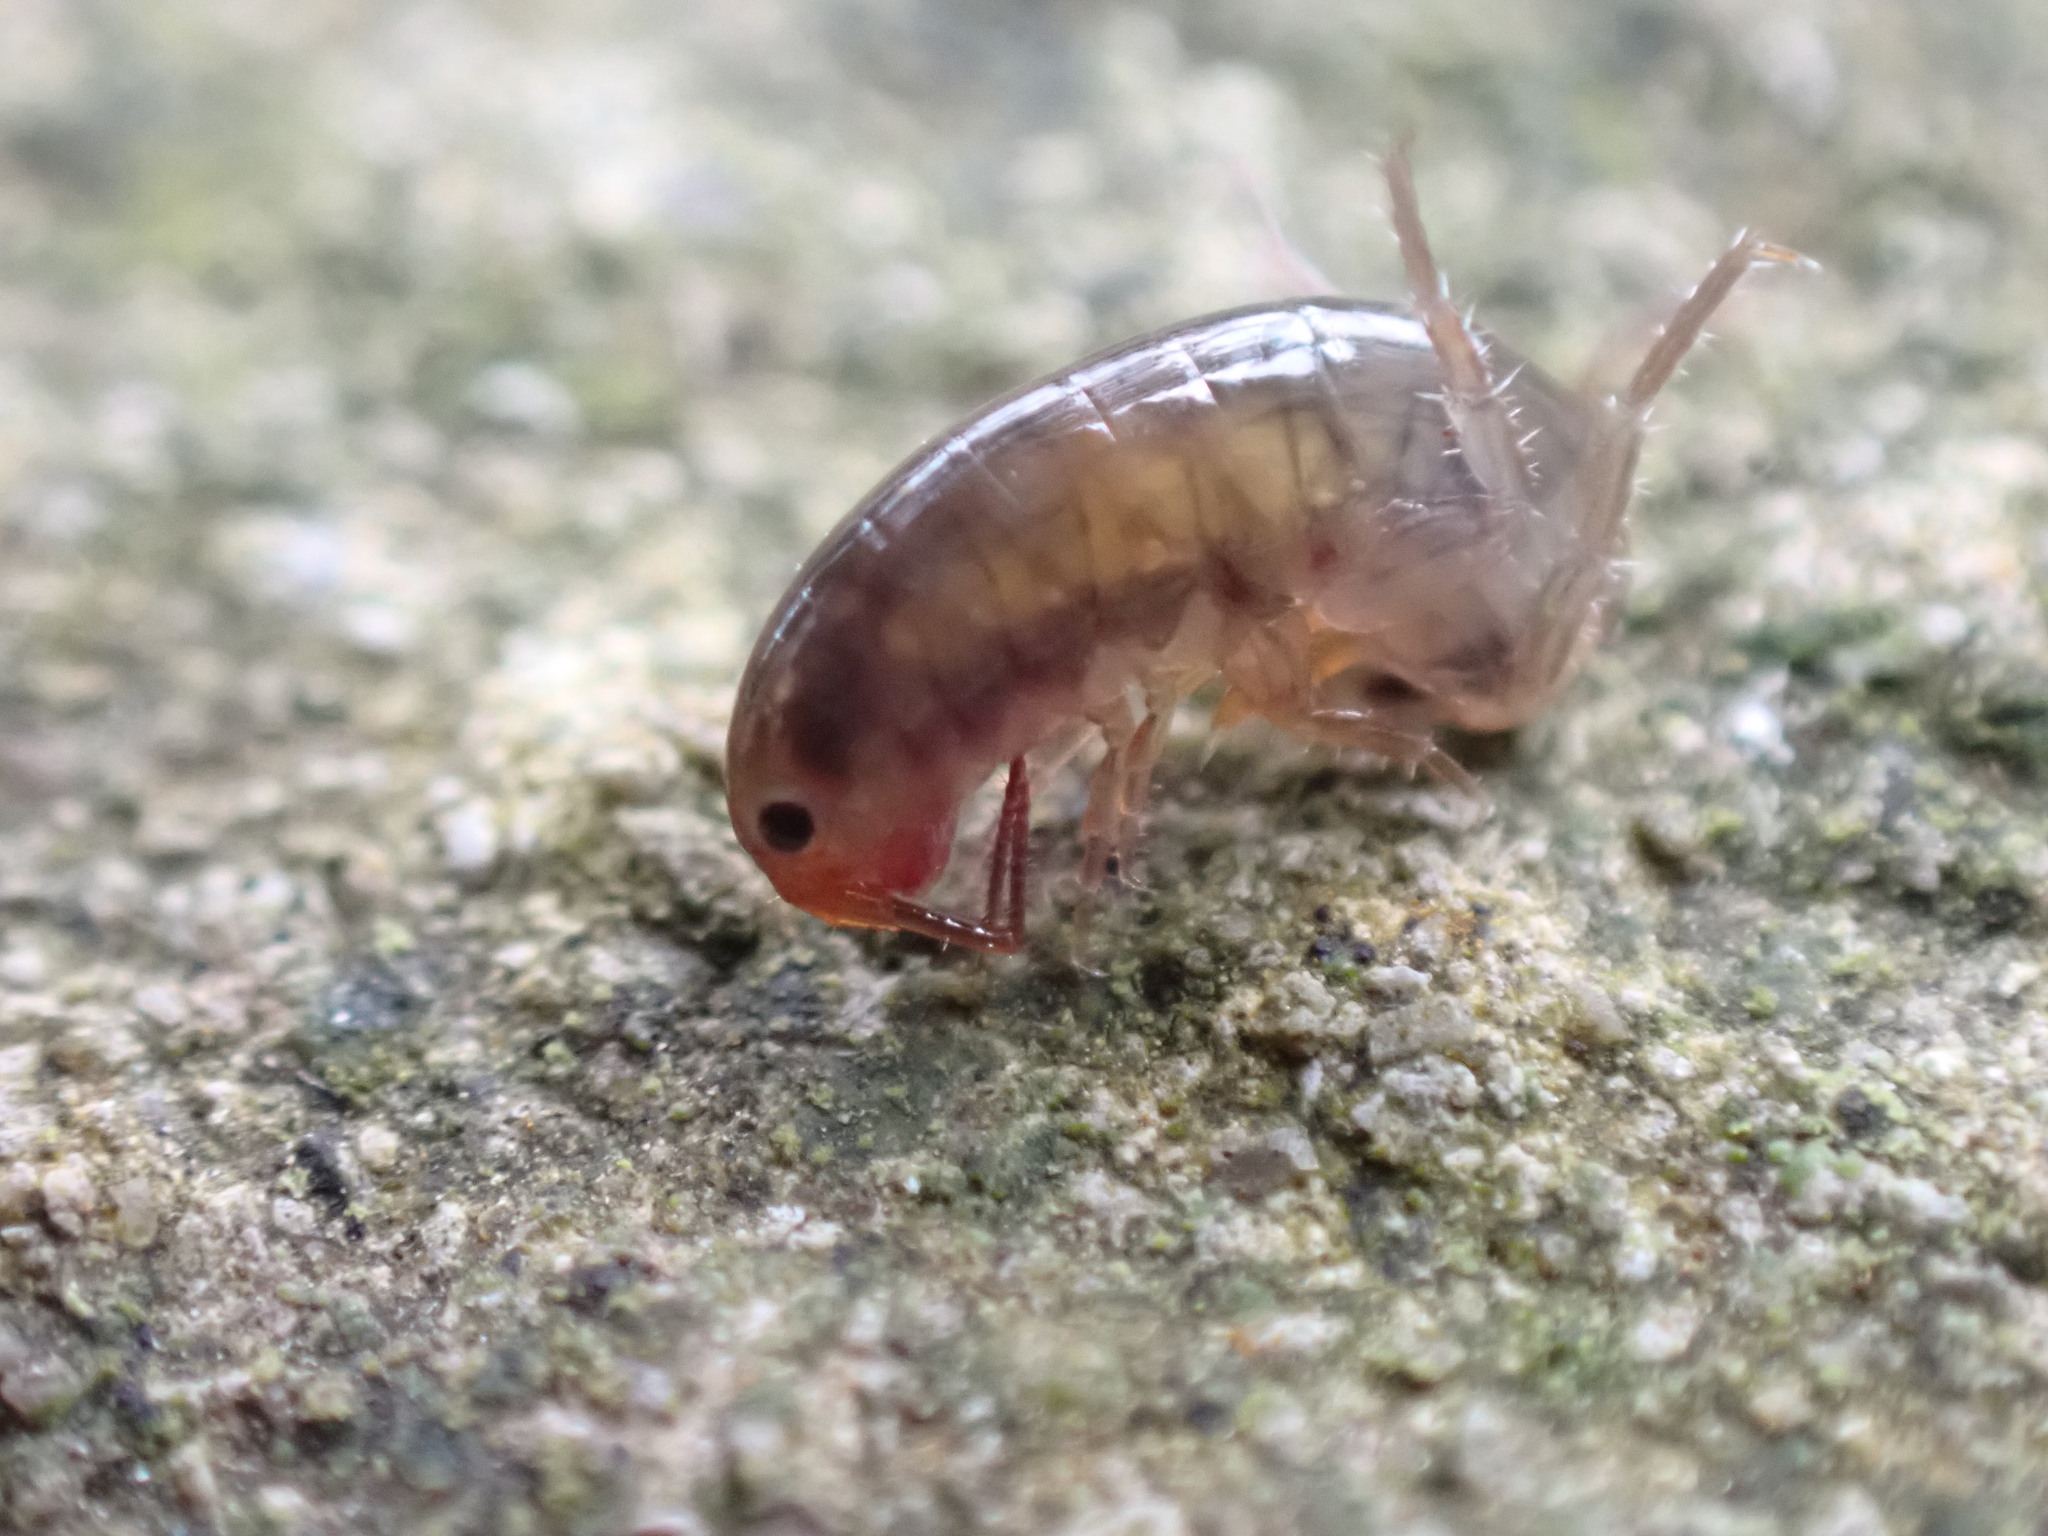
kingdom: Animalia
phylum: Arthropoda
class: Malacostraca
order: Amphipoda
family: Arcitalitridae
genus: Arcitalitrus
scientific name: Arcitalitrus dorrieni
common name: Landhopper
